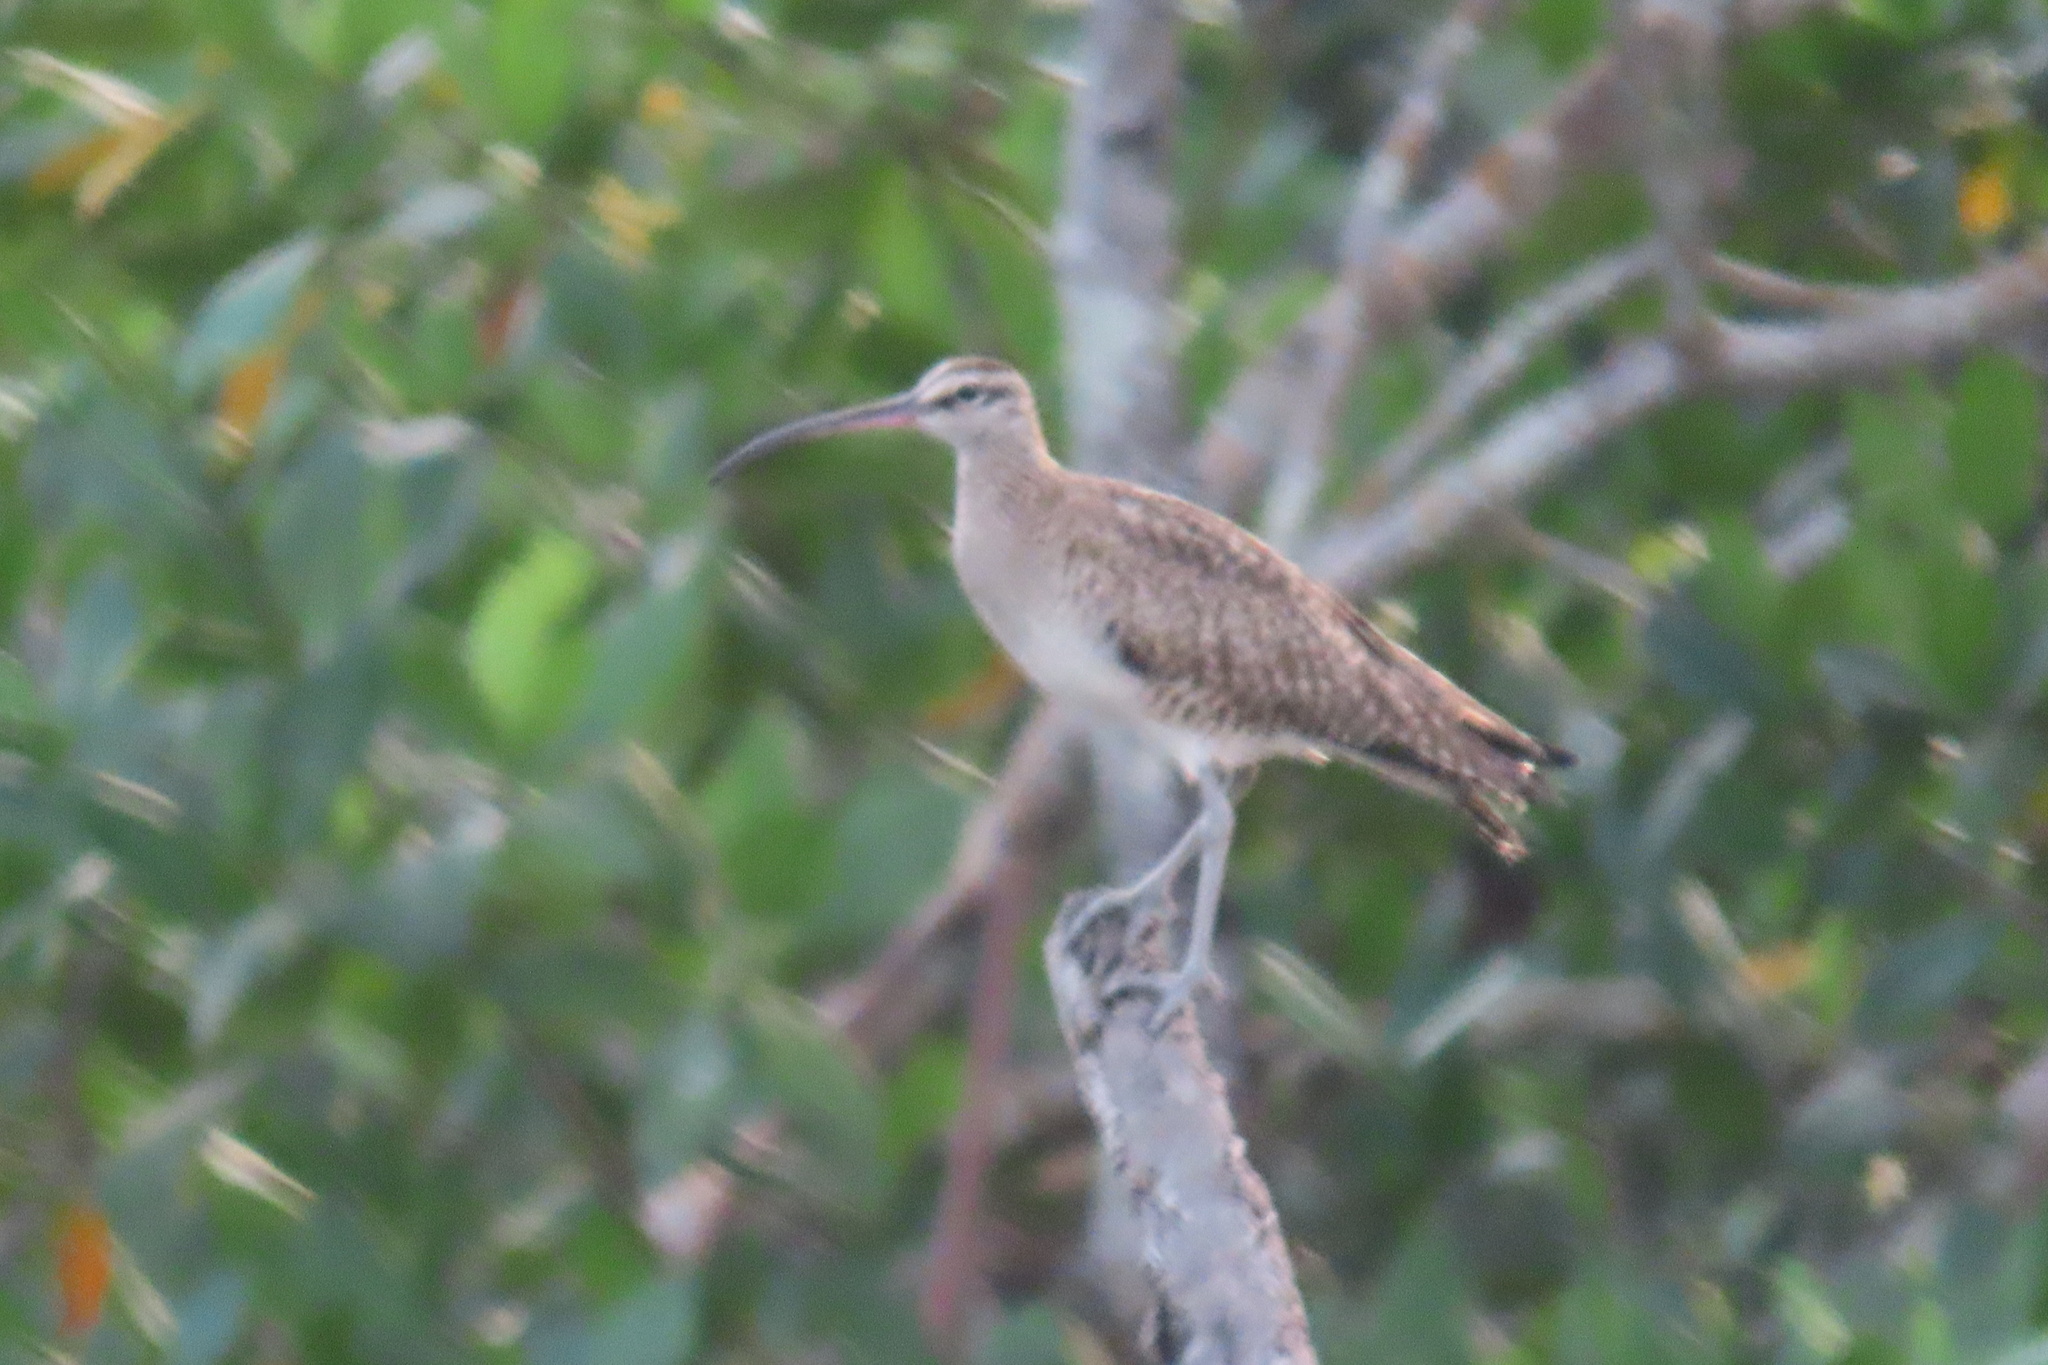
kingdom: Animalia
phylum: Chordata
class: Aves
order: Charadriiformes
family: Scolopacidae
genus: Numenius
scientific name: Numenius phaeopus
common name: Whimbrel
